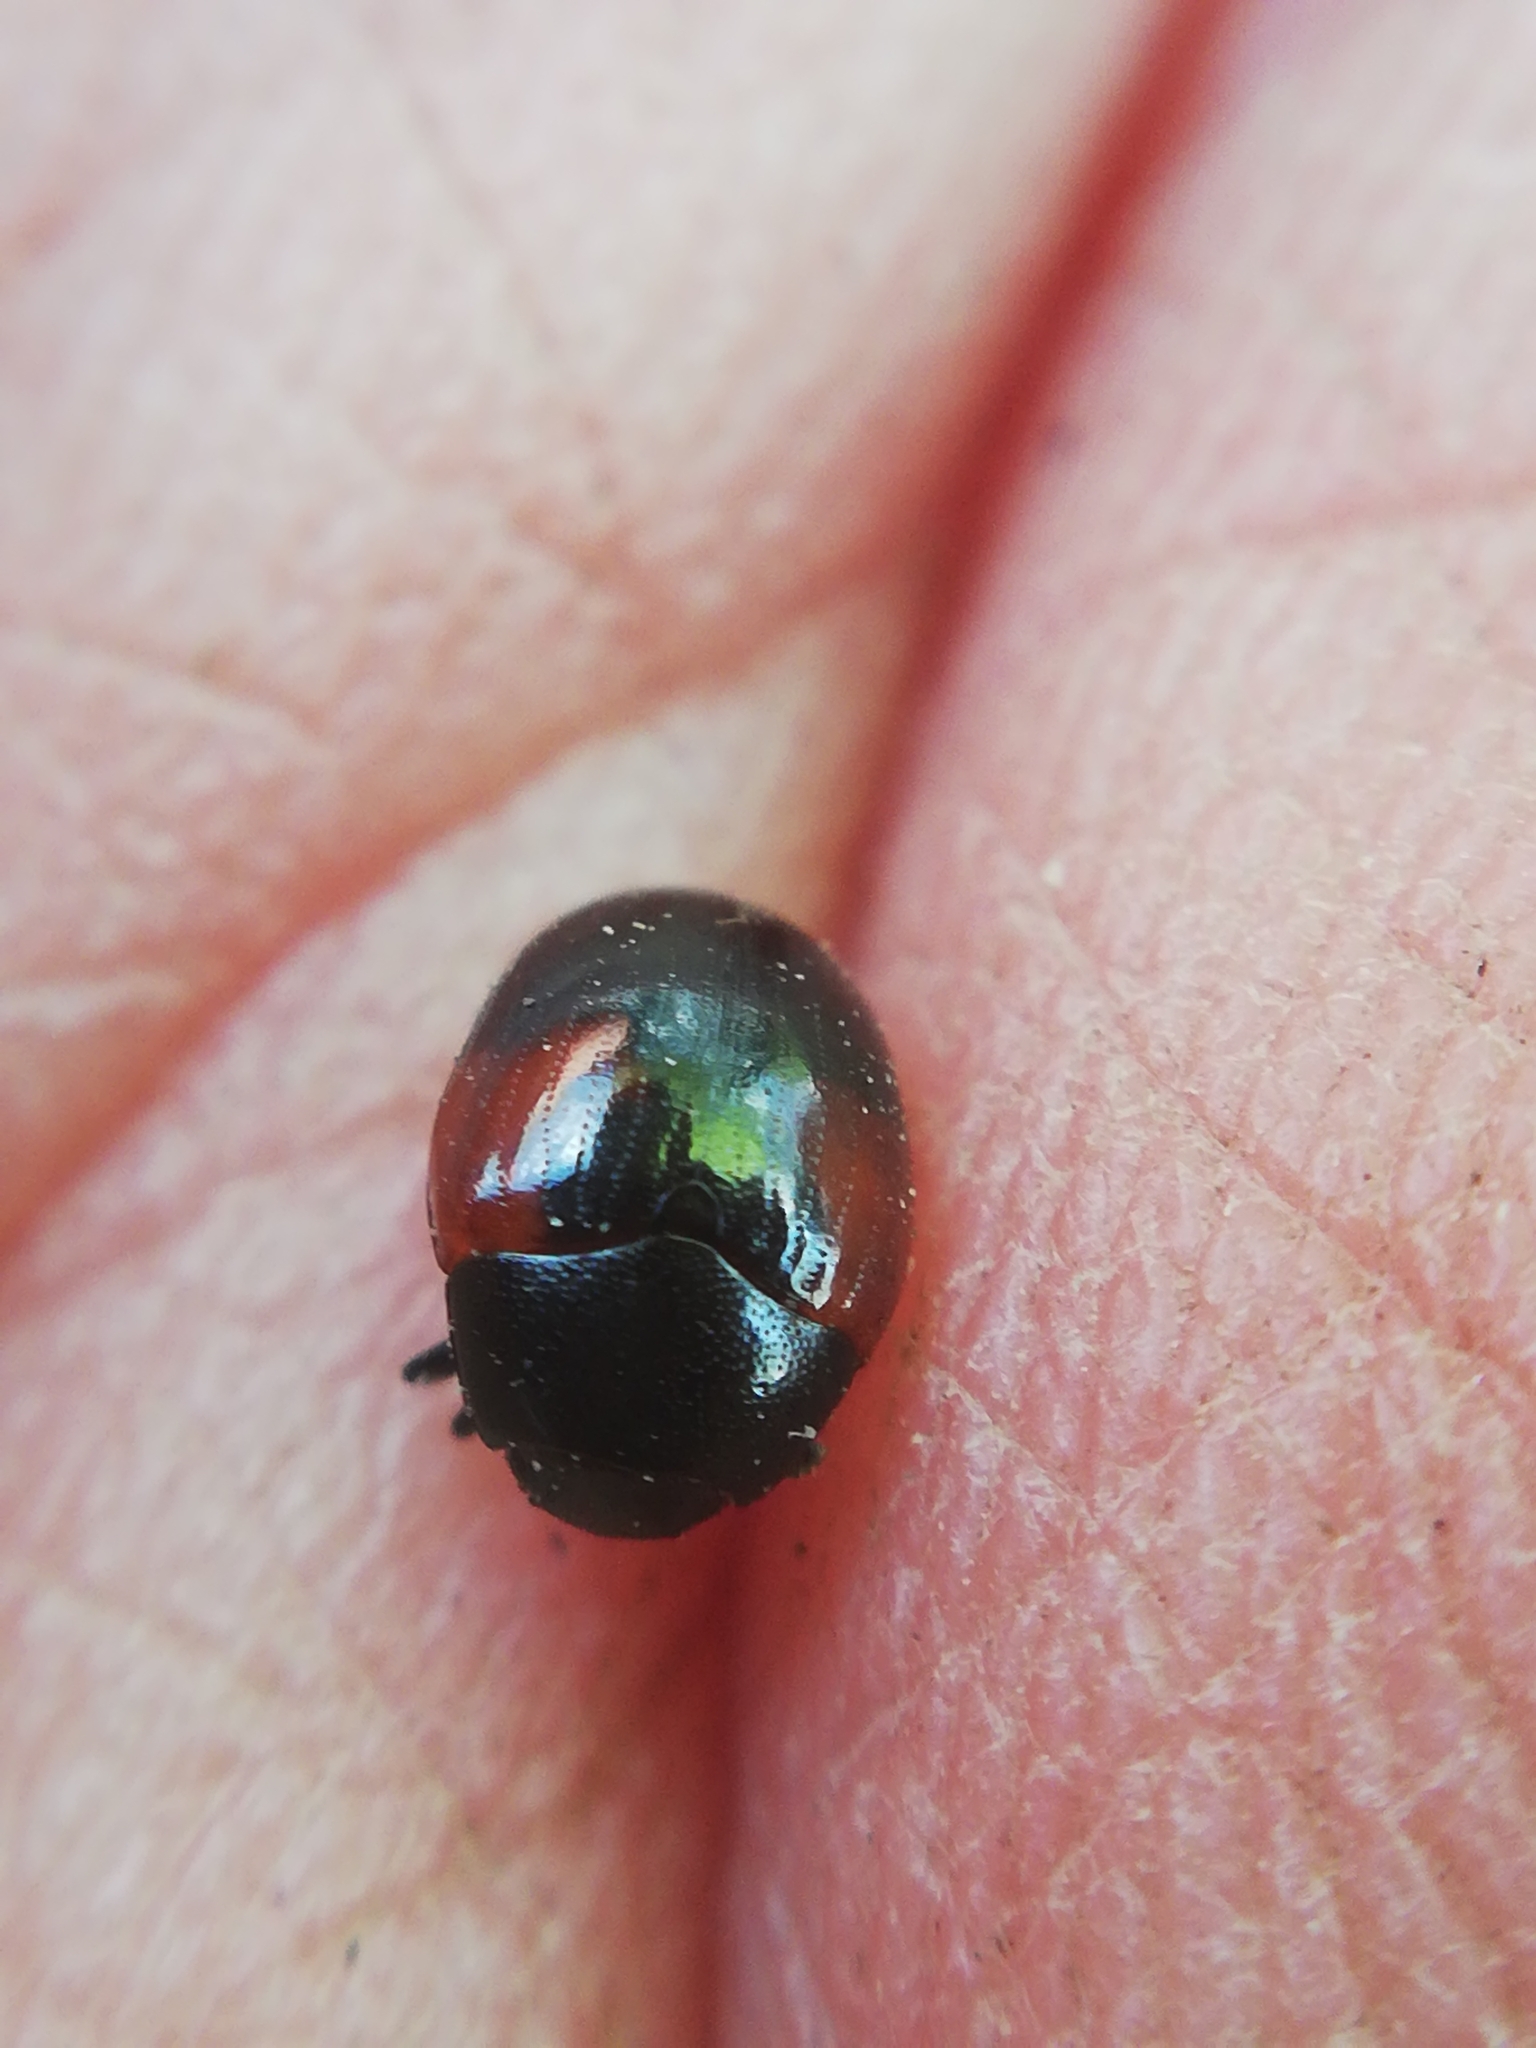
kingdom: Animalia
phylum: Arthropoda
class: Insecta
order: Coleoptera
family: Erotylidae
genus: Tritoma
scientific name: Tritoma bipustulata
